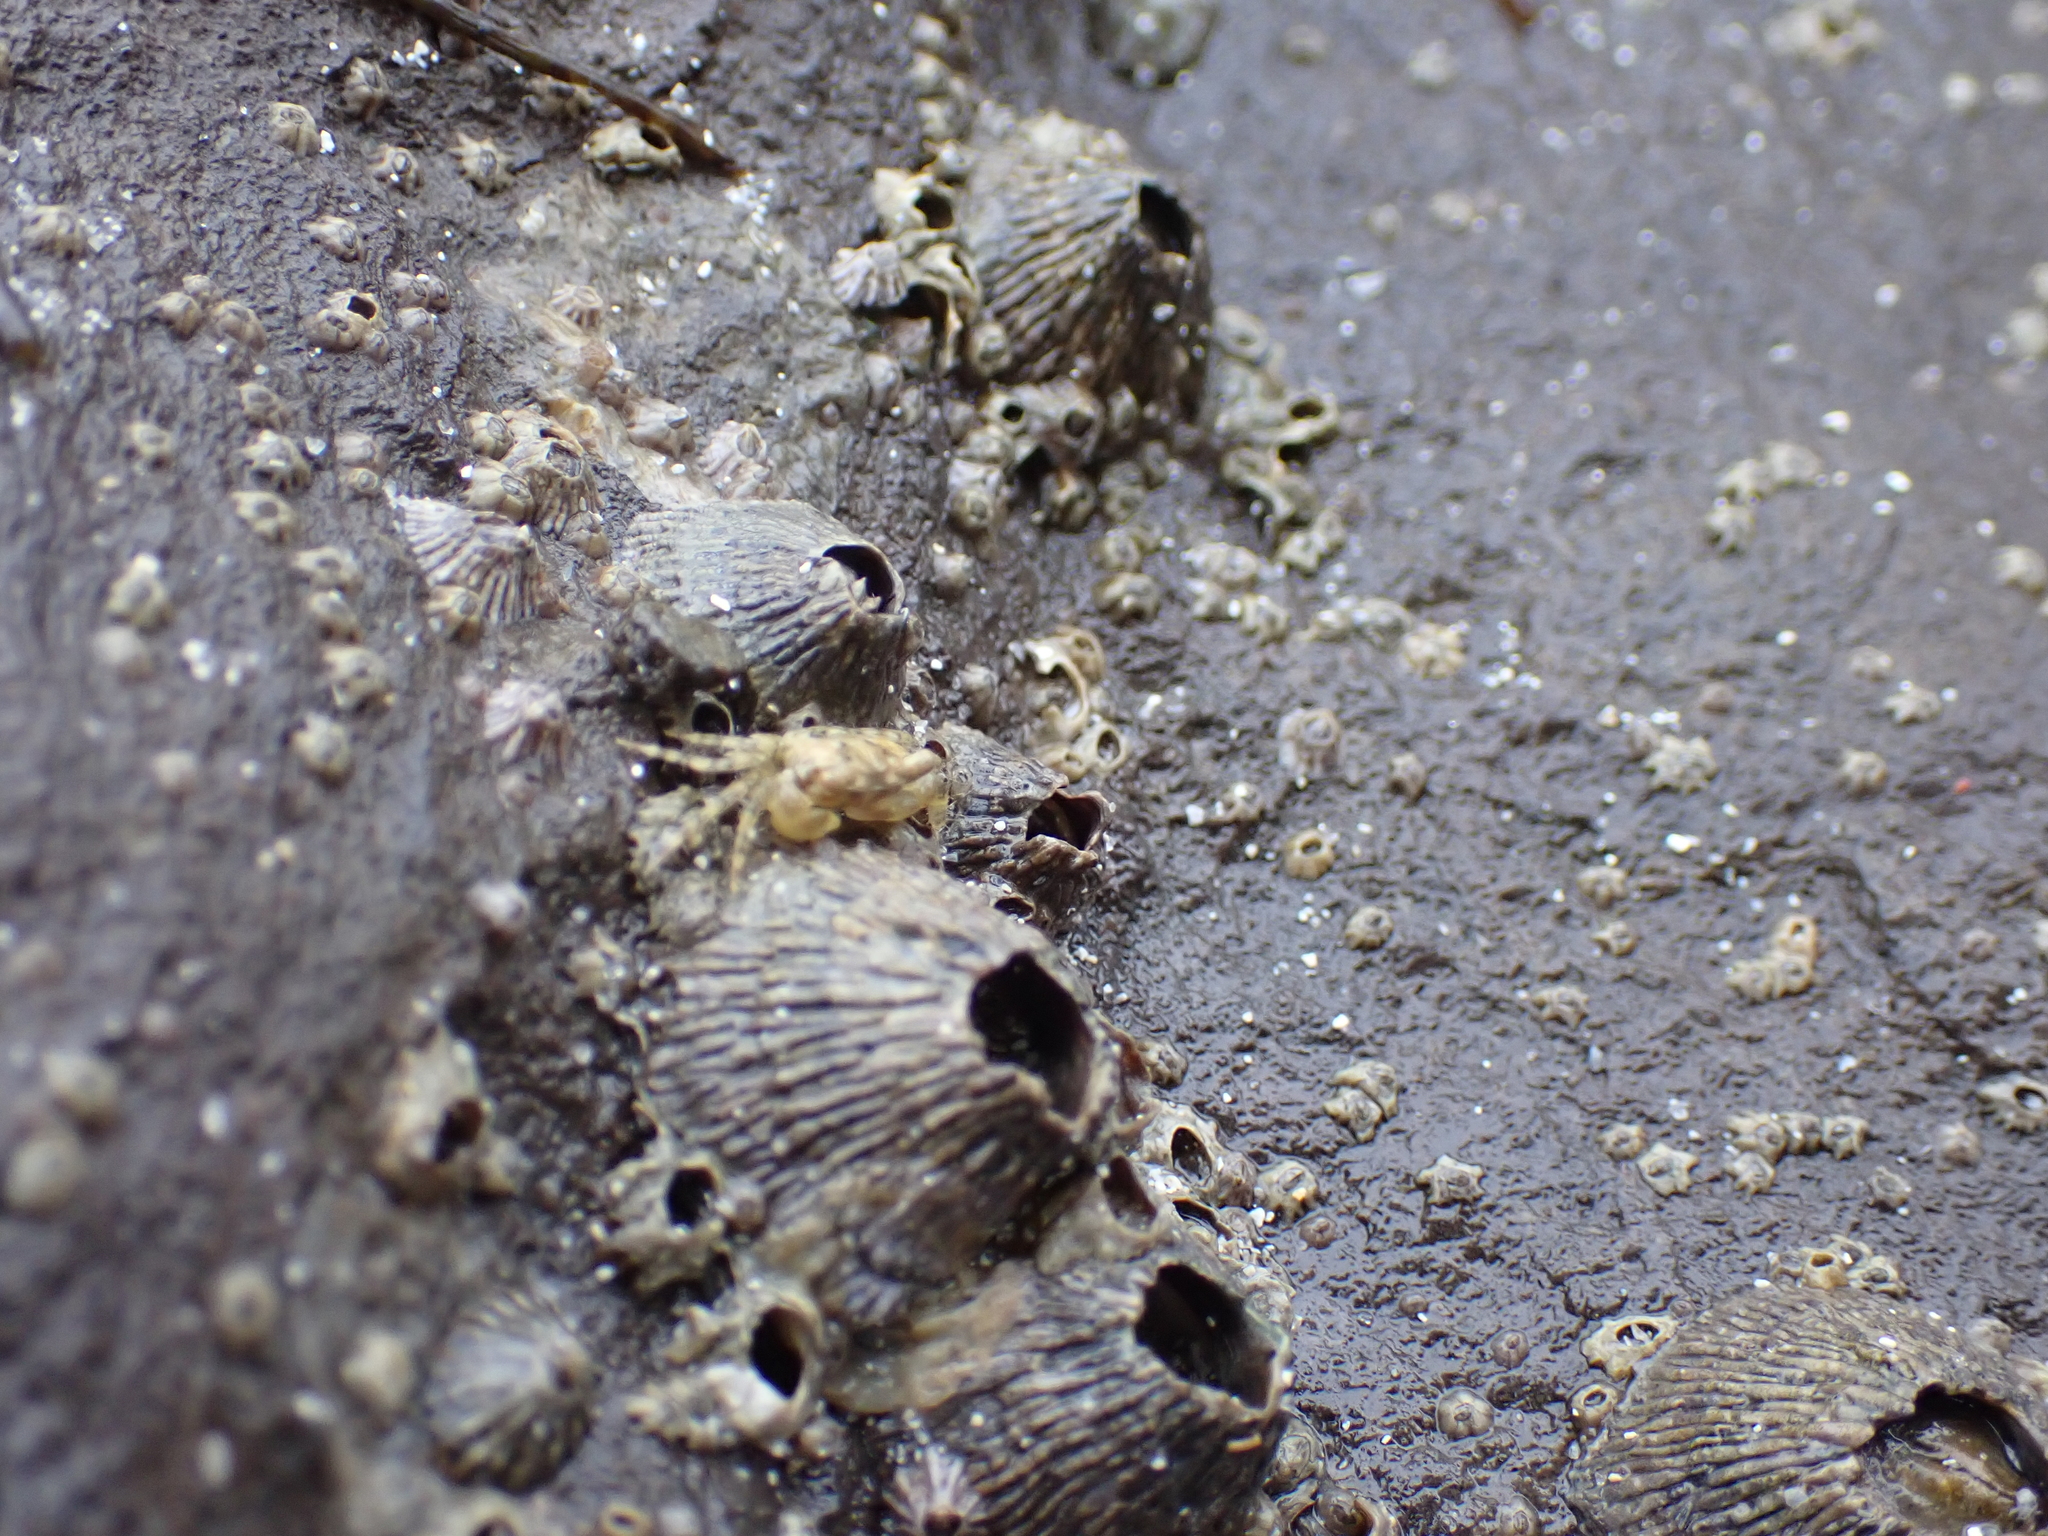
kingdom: Animalia
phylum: Arthropoda
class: Maxillopoda
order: Sessilia
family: Tetraclitidae
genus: Tetraclita
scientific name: Tetraclita stalactifera
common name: Ribbed barnacle
